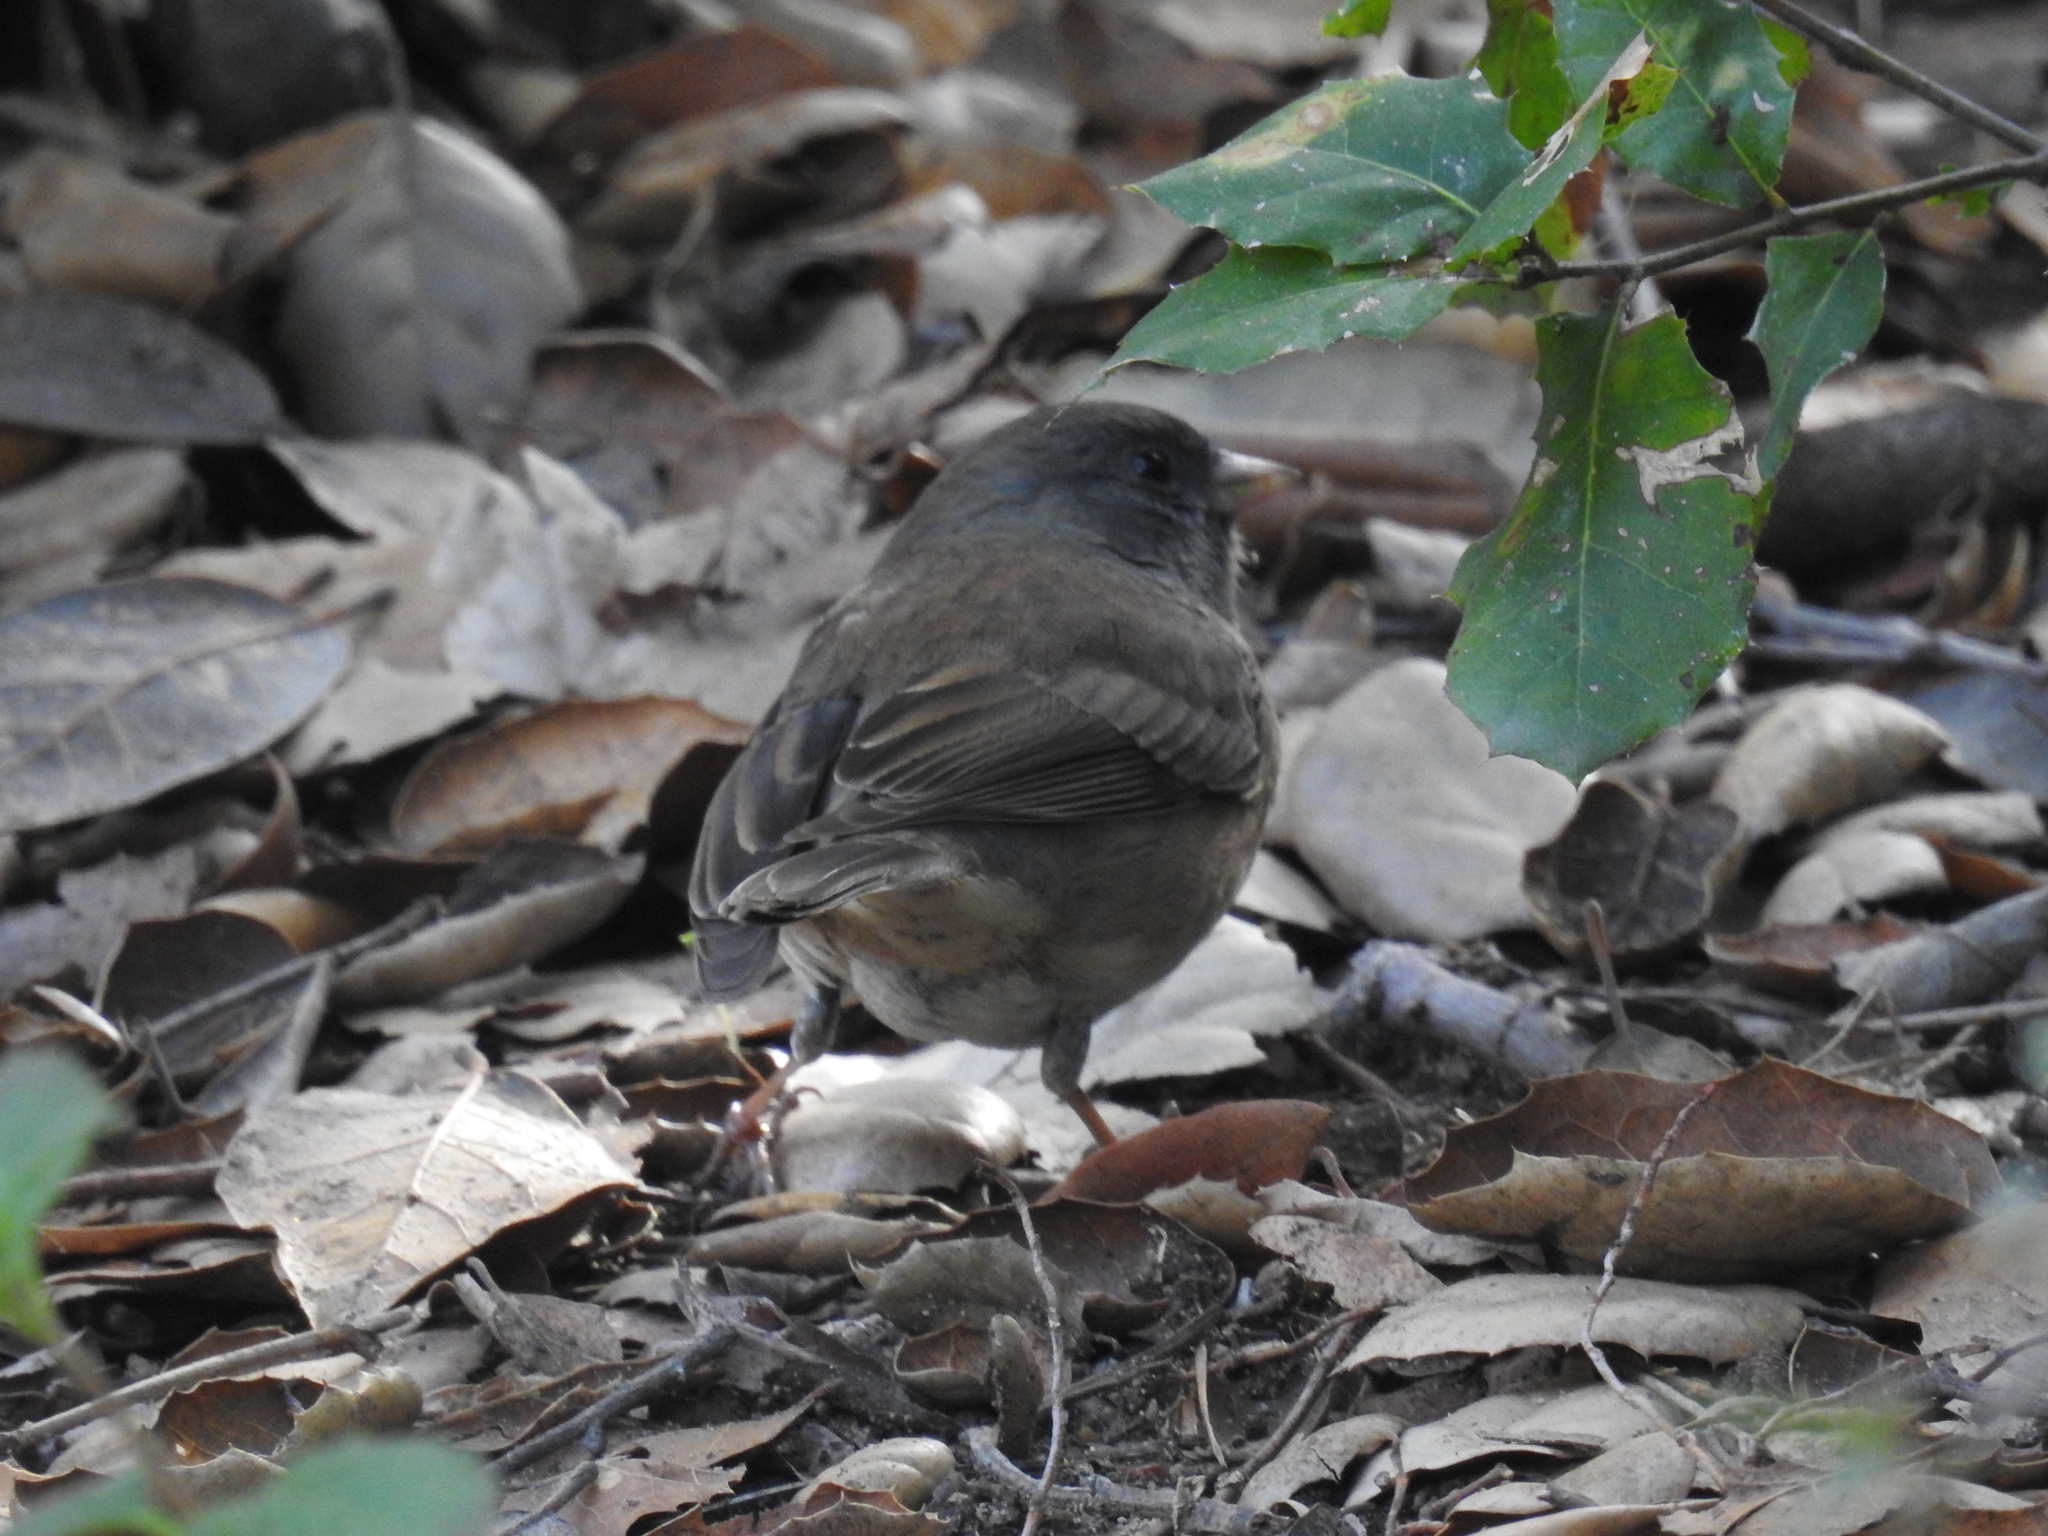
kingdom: Animalia
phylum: Chordata
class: Aves
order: Passeriformes
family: Passerellidae
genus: Junco
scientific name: Junco hyemalis
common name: Dark-eyed junco
